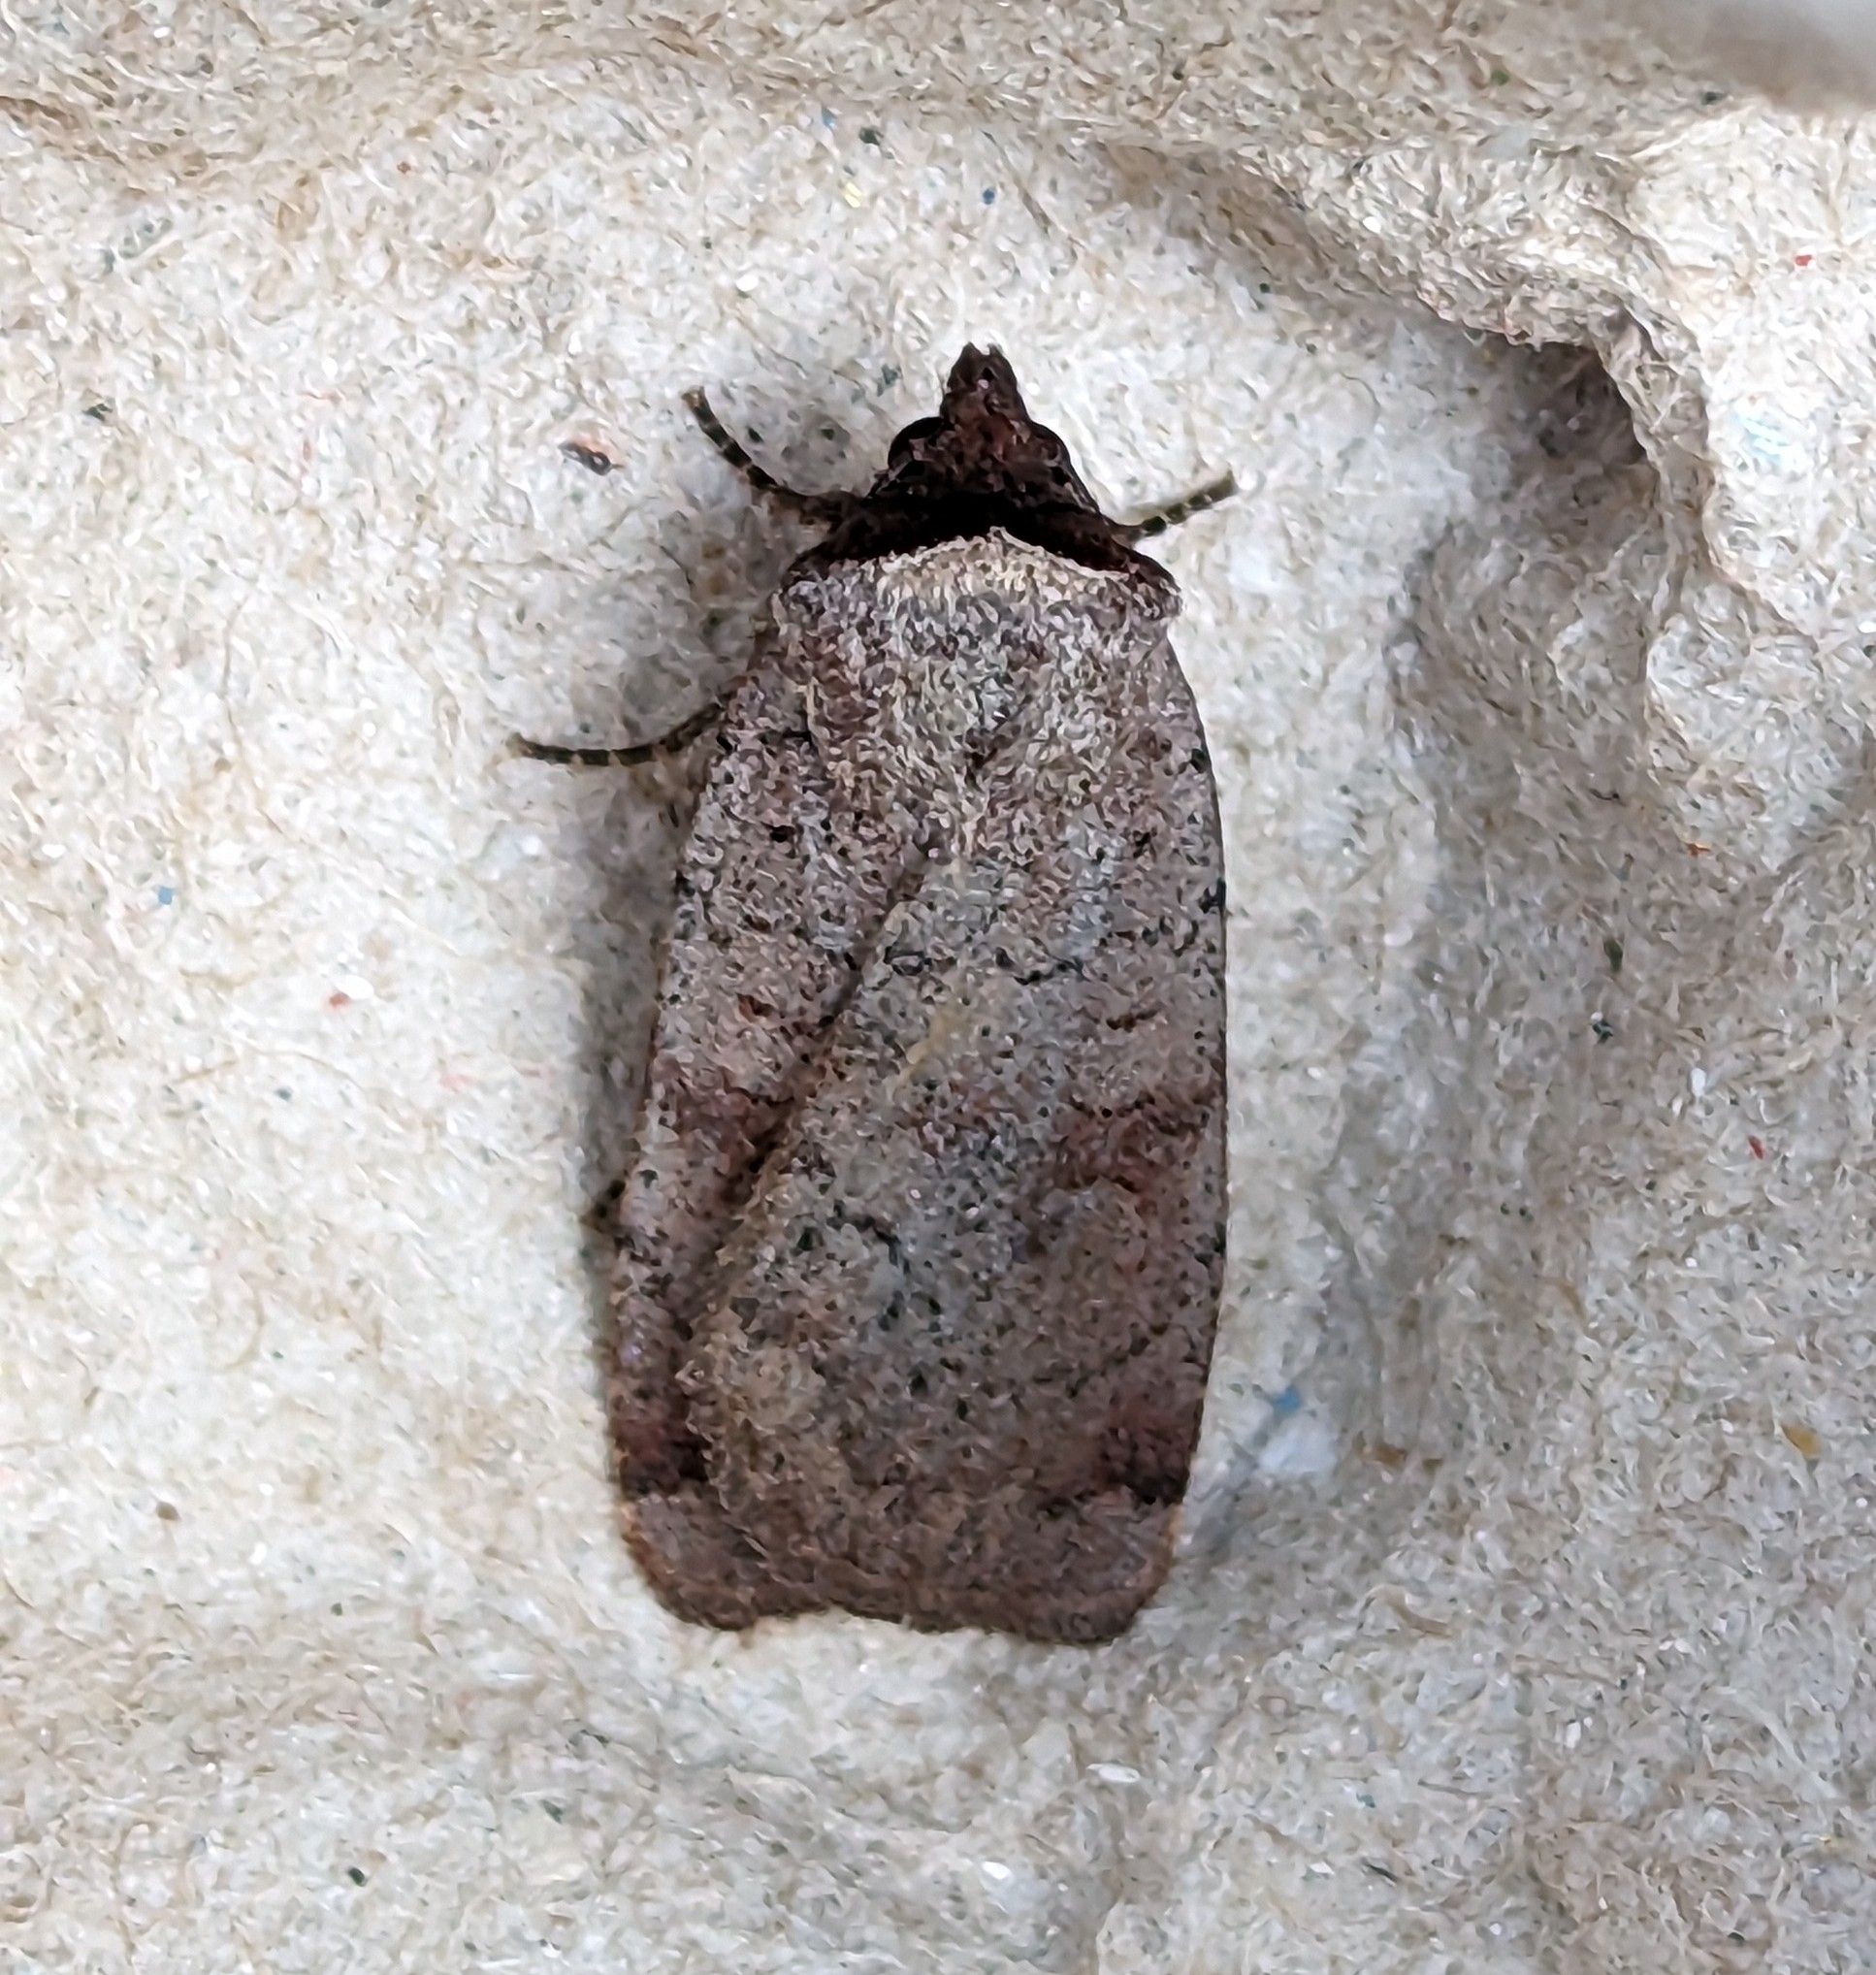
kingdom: Animalia
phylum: Arthropoda
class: Insecta
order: Lepidoptera
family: Noctuidae
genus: Protolampra
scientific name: Protolampra rufipectus
